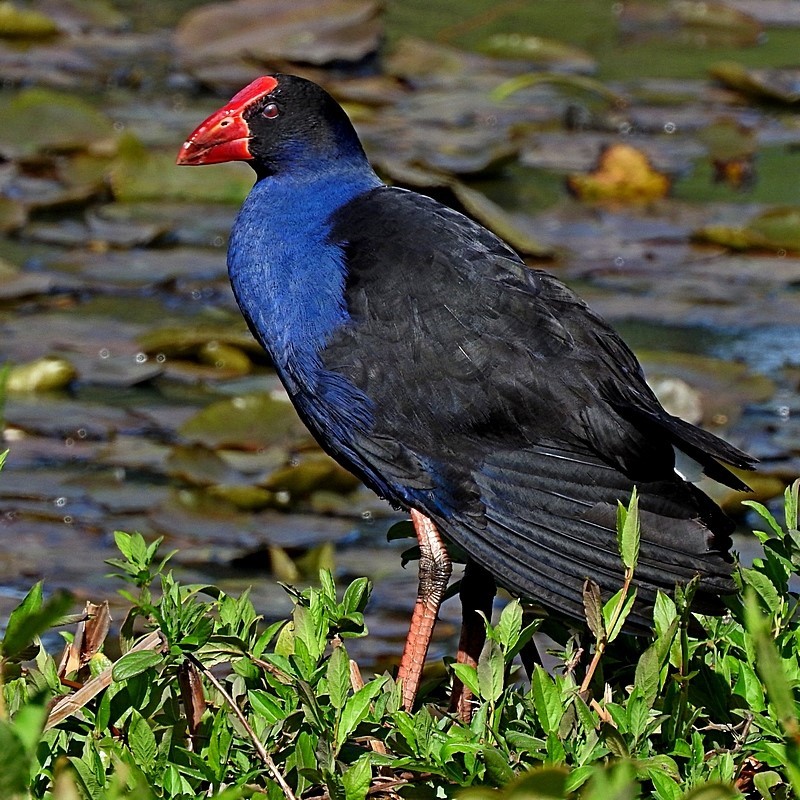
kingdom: Animalia
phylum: Chordata
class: Aves
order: Gruiformes
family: Rallidae
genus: Porphyrio
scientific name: Porphyrio melanotus
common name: Australasian swamphen
